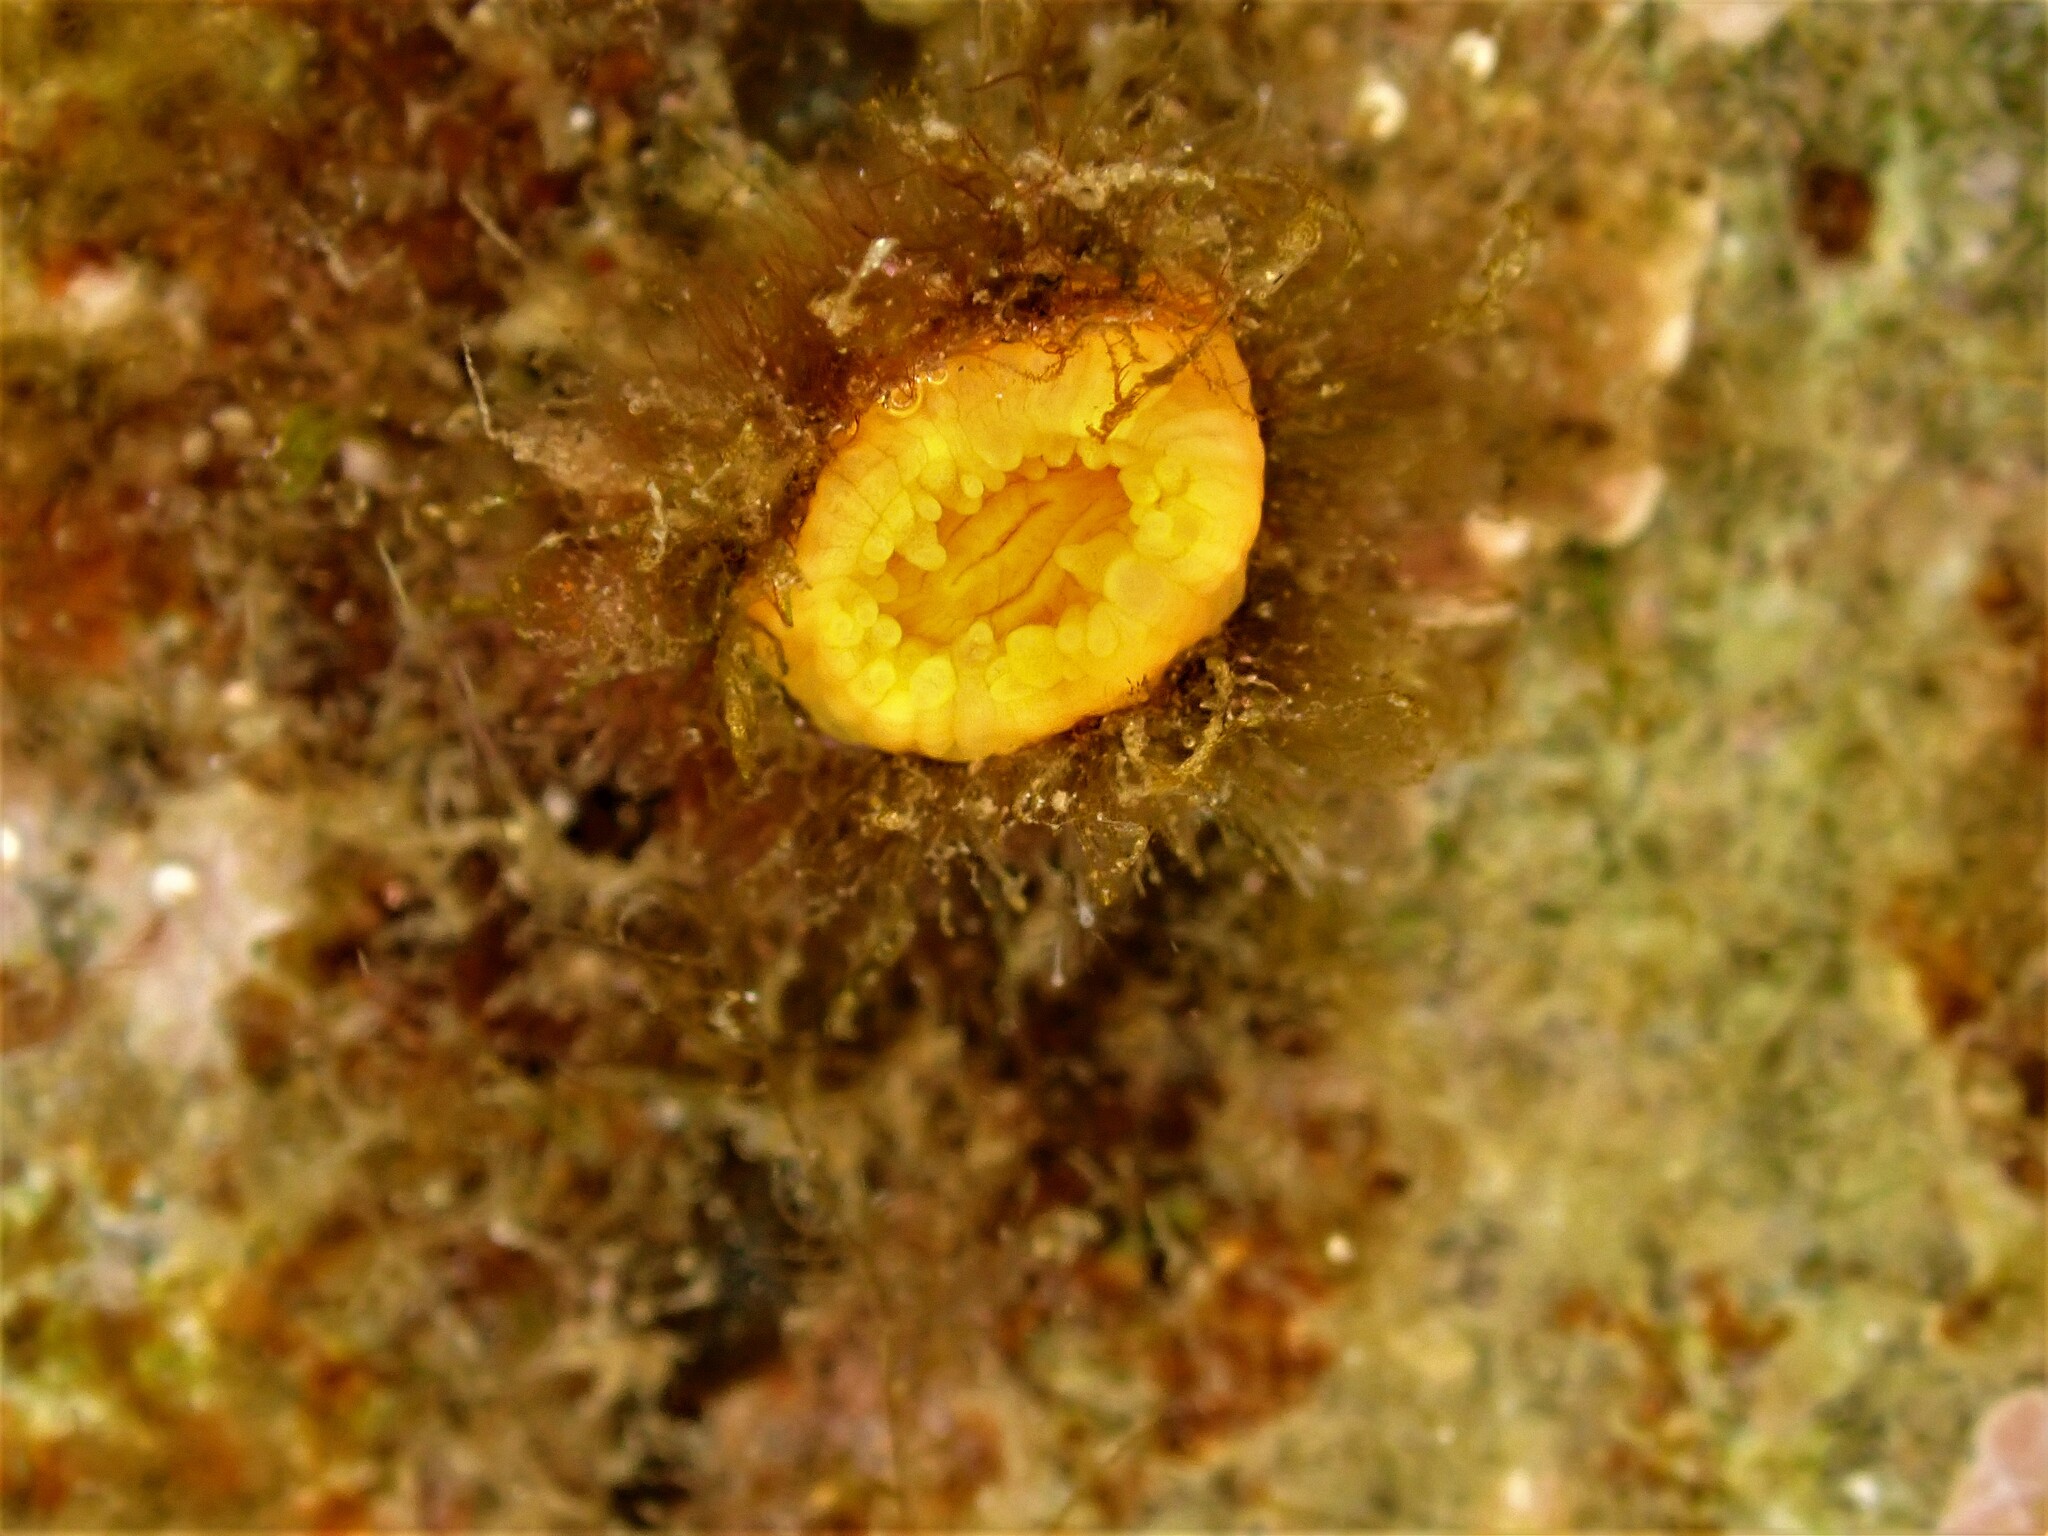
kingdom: Animalia
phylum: Cnidaria
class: Anthozoa
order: Scleractinia
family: Dendrophylliidae
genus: Balanophyllia
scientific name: Balanophyllia regia
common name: Golden star coral
